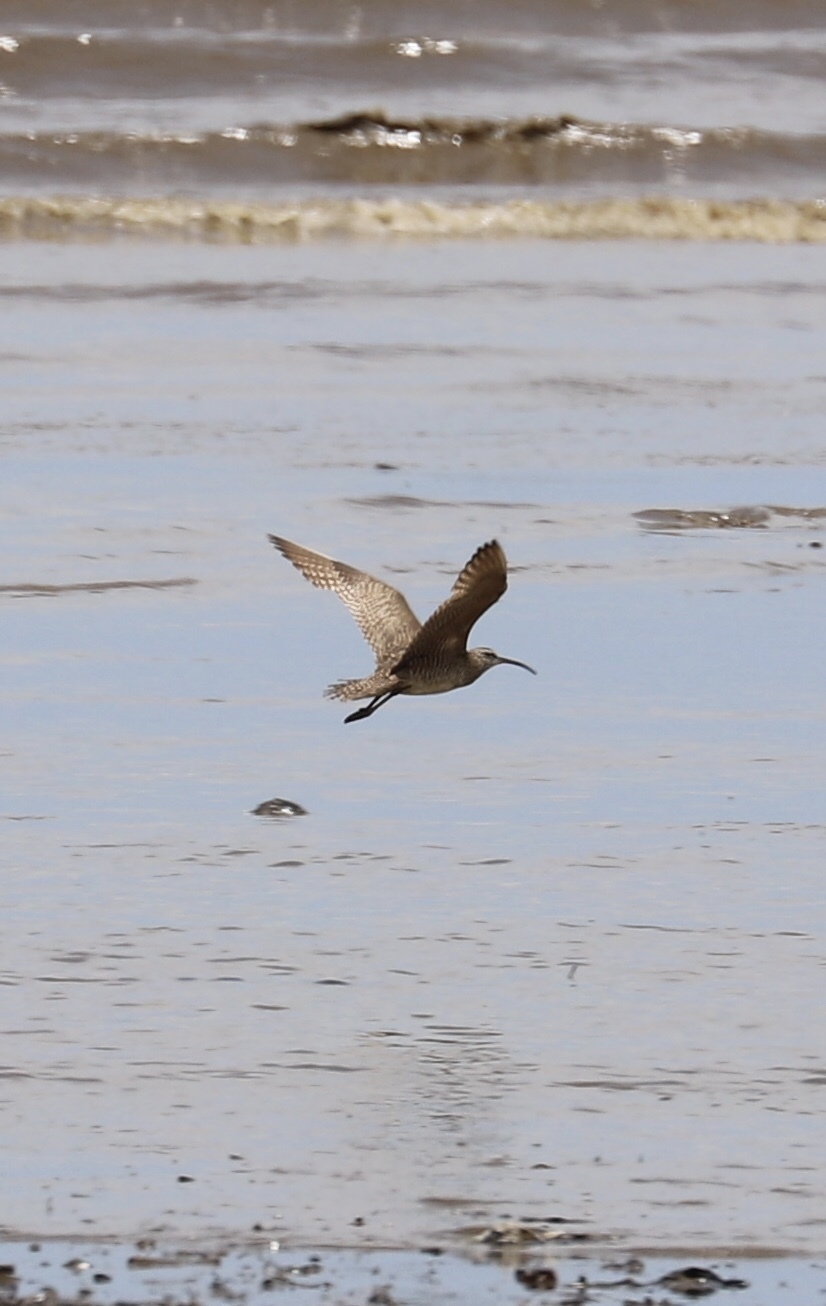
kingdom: Animalia
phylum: Chordata
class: Aves
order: Charadriiformes
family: Scolopacidae
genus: Numenius
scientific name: Numenius phaeopus
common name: Whimbrel
